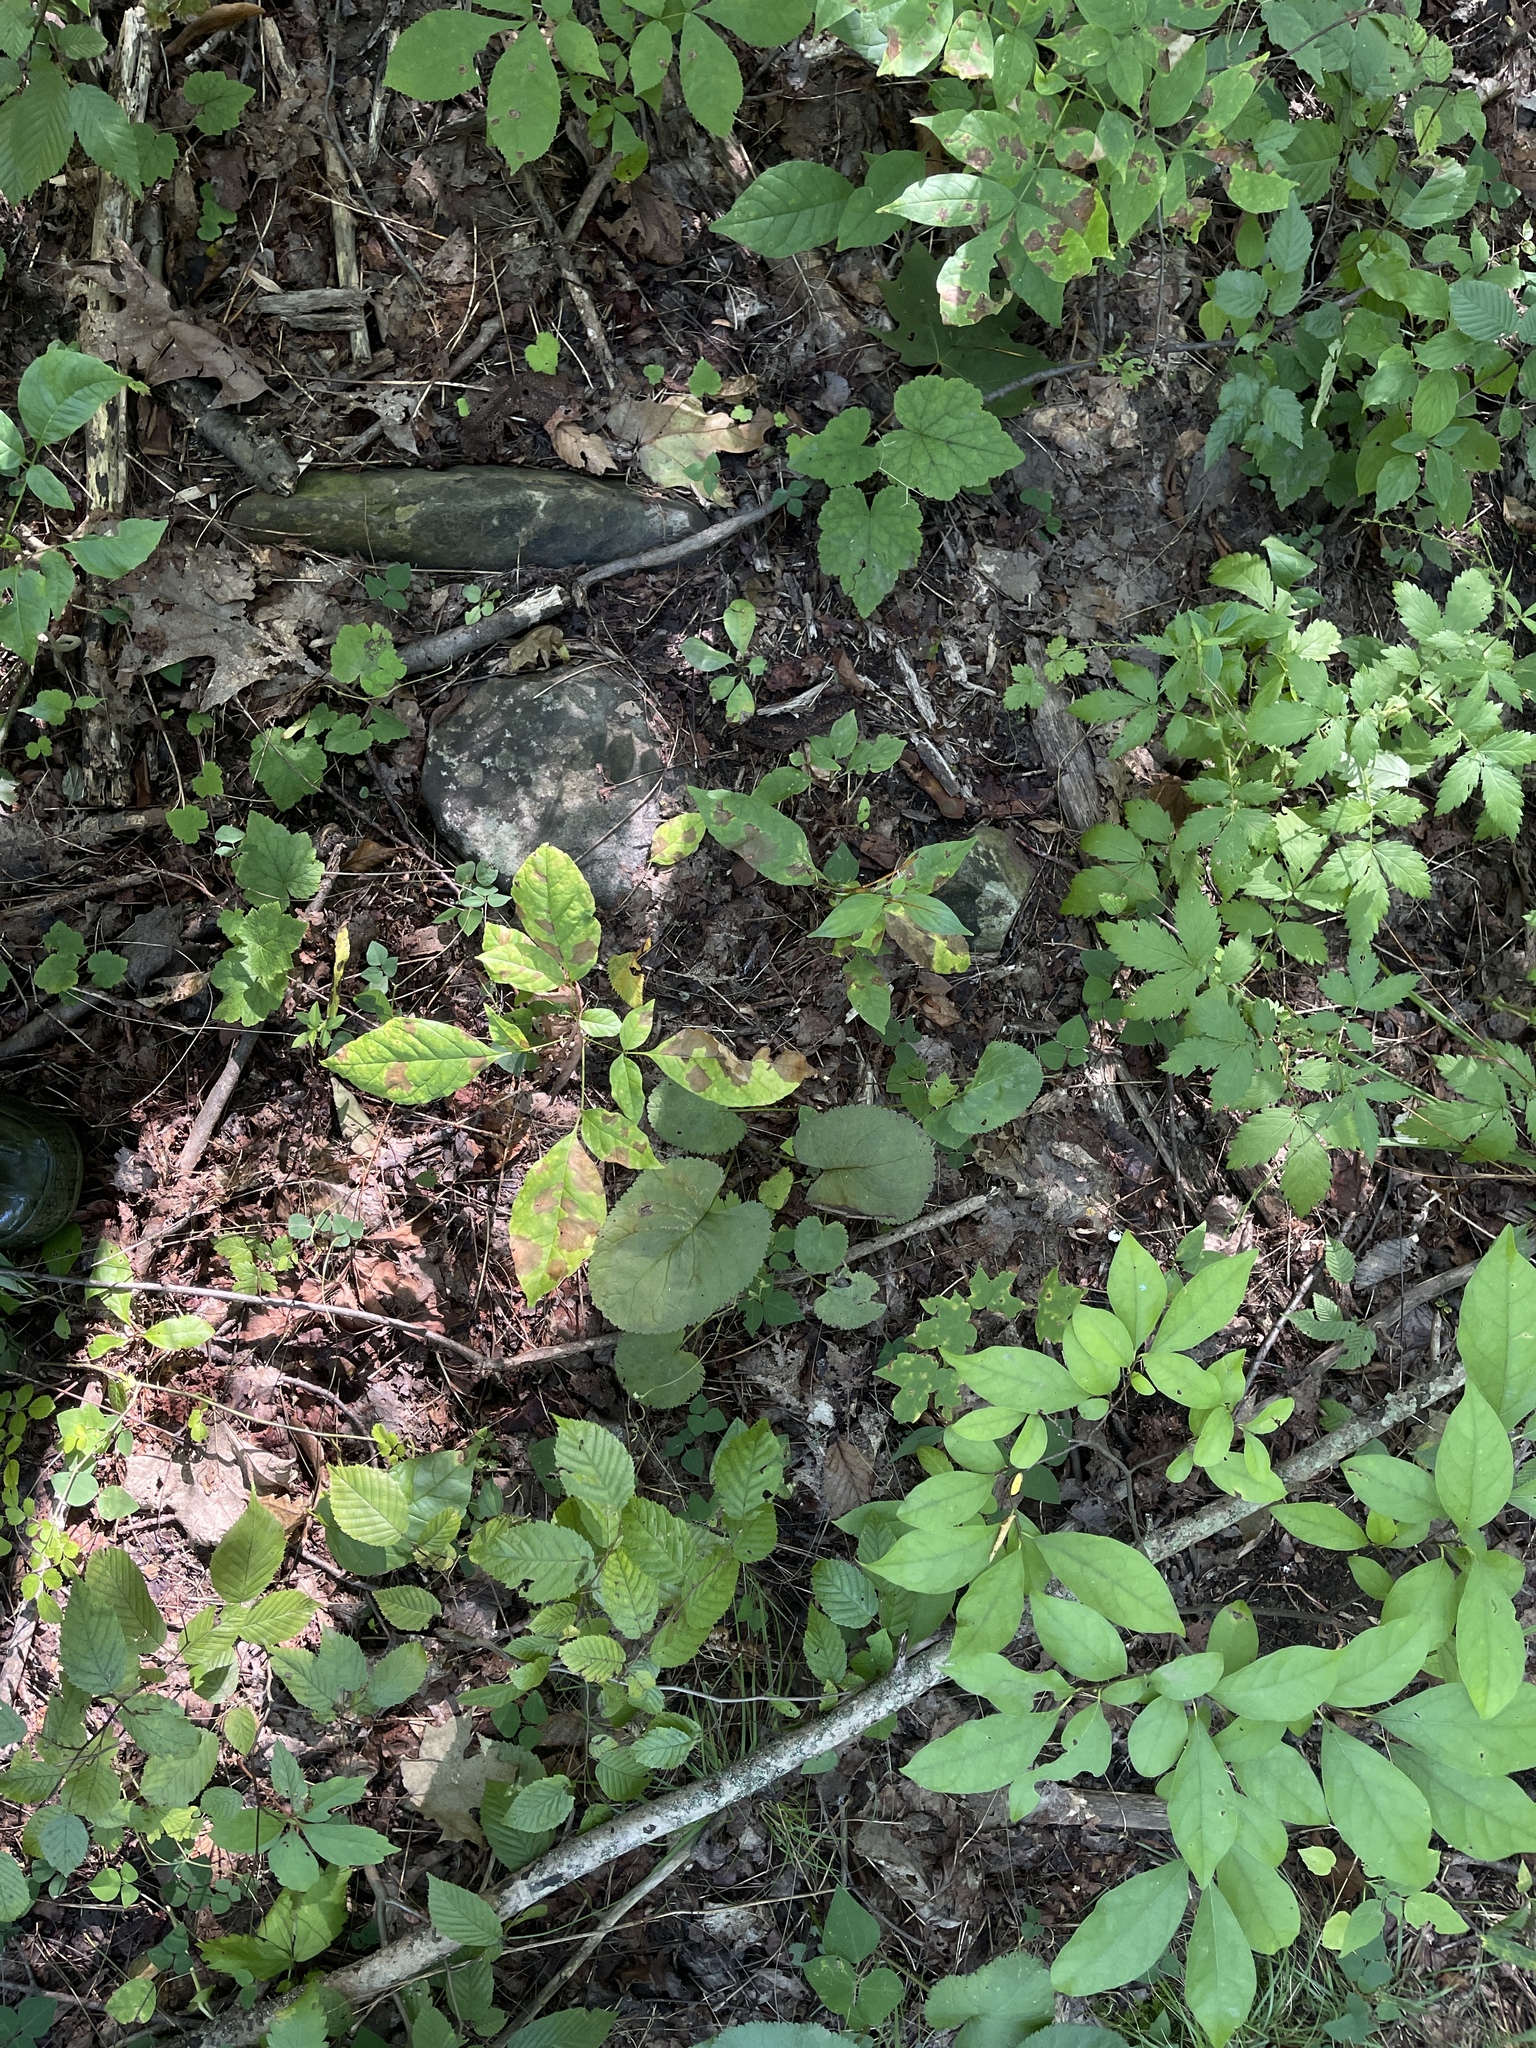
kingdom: Plantae
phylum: Tracheophyta
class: Magnoliopsida
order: Saxifragales
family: Saxifragaceae
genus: Tiarella
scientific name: Tiarella stolonifera
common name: Stoloniferous foamflower
